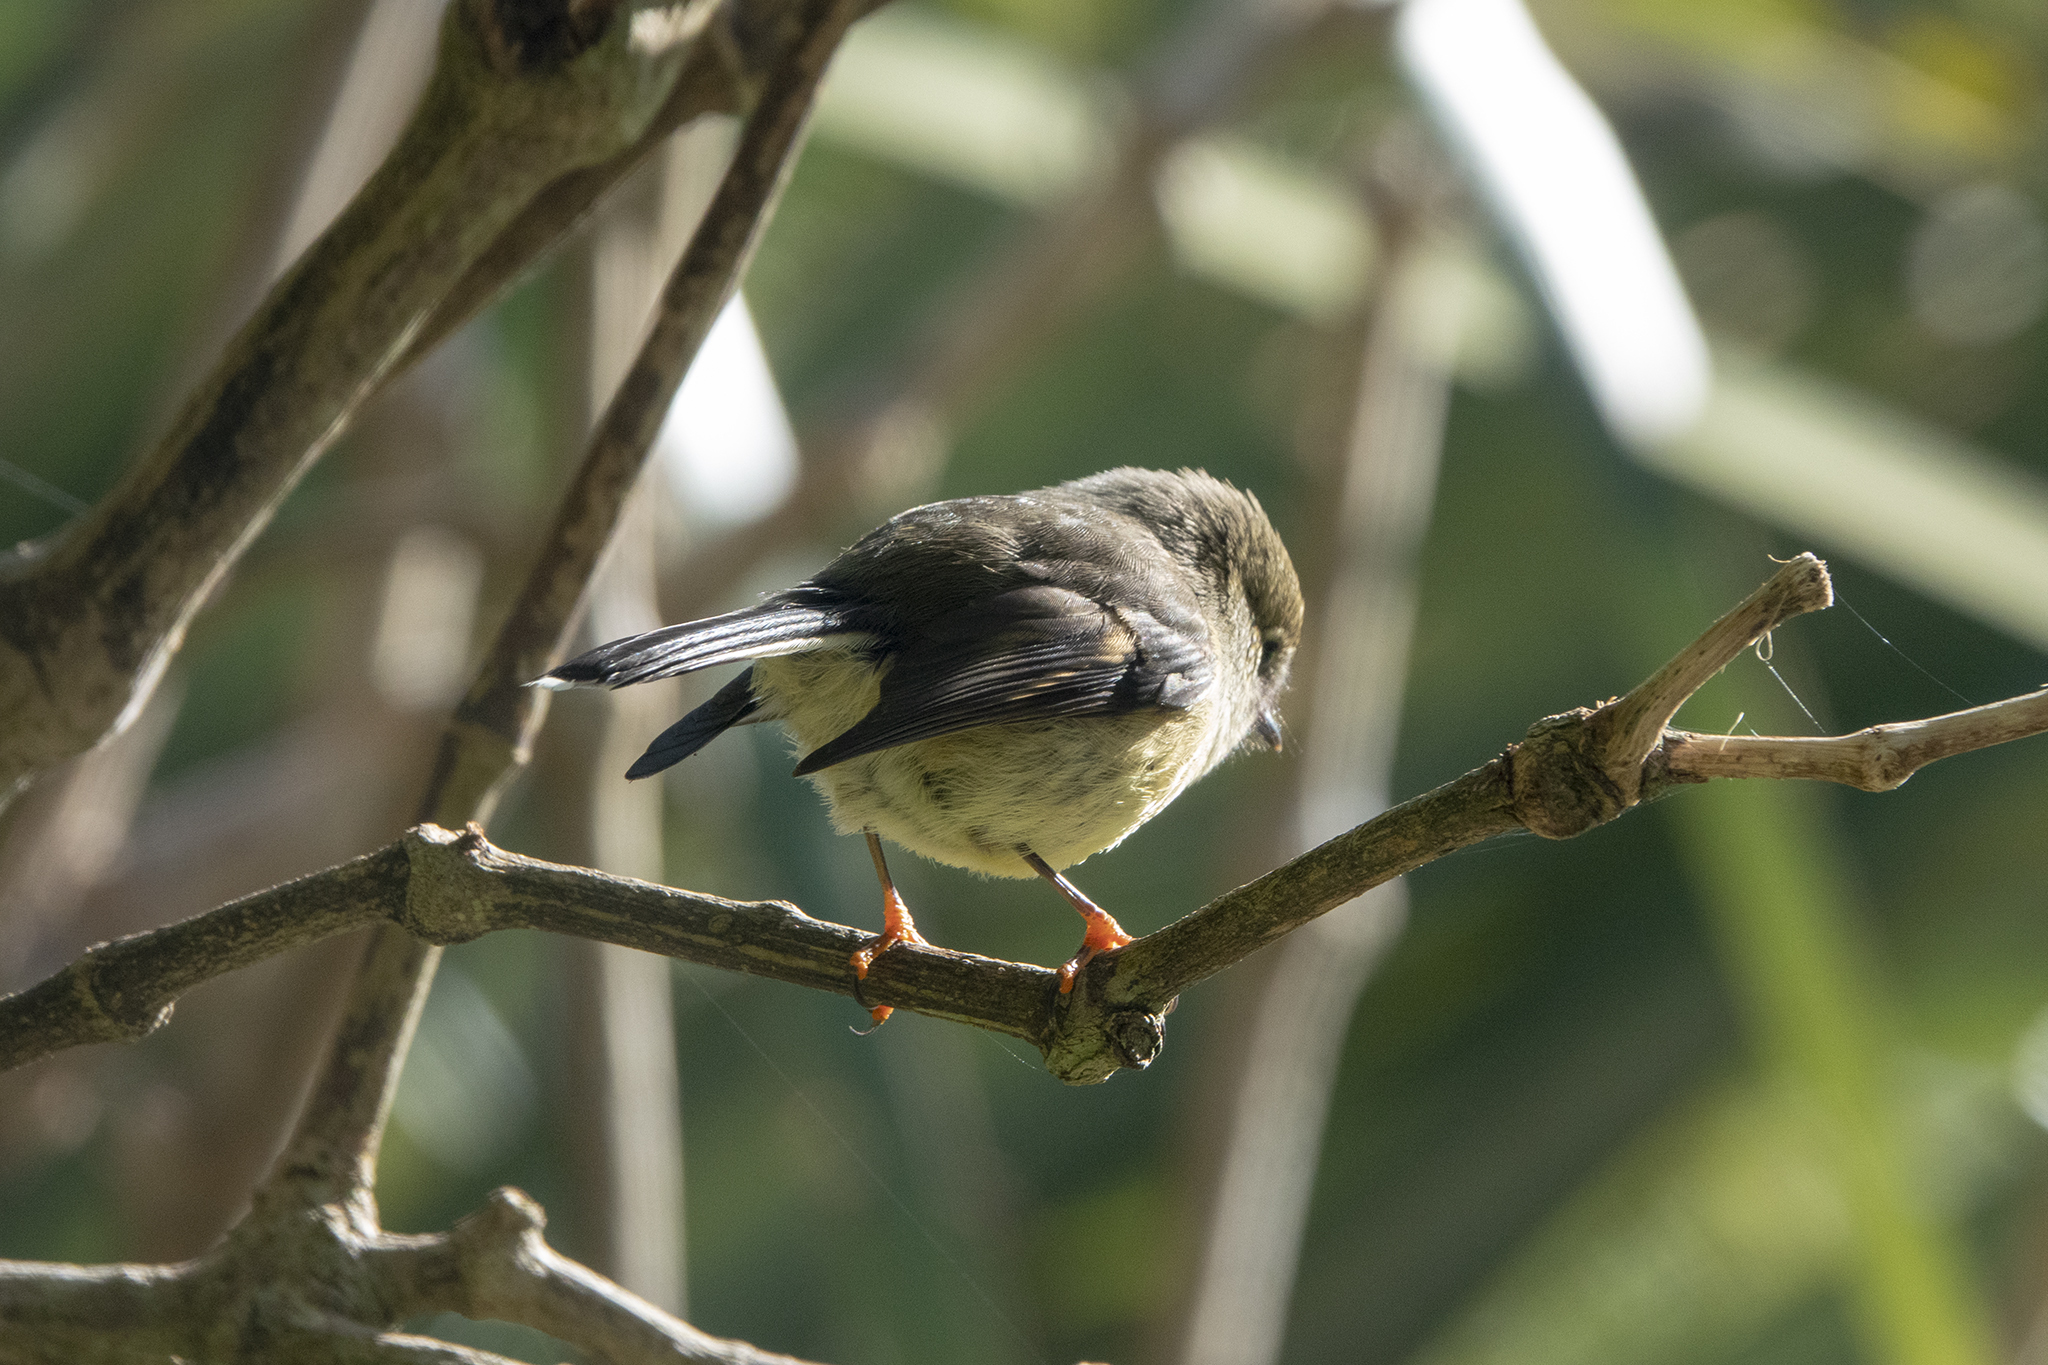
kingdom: Animalia
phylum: Chordata
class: Aves
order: Passeriformes
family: Petroicidae
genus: Petroica
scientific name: Petroica macrocephala
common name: Tomtit
